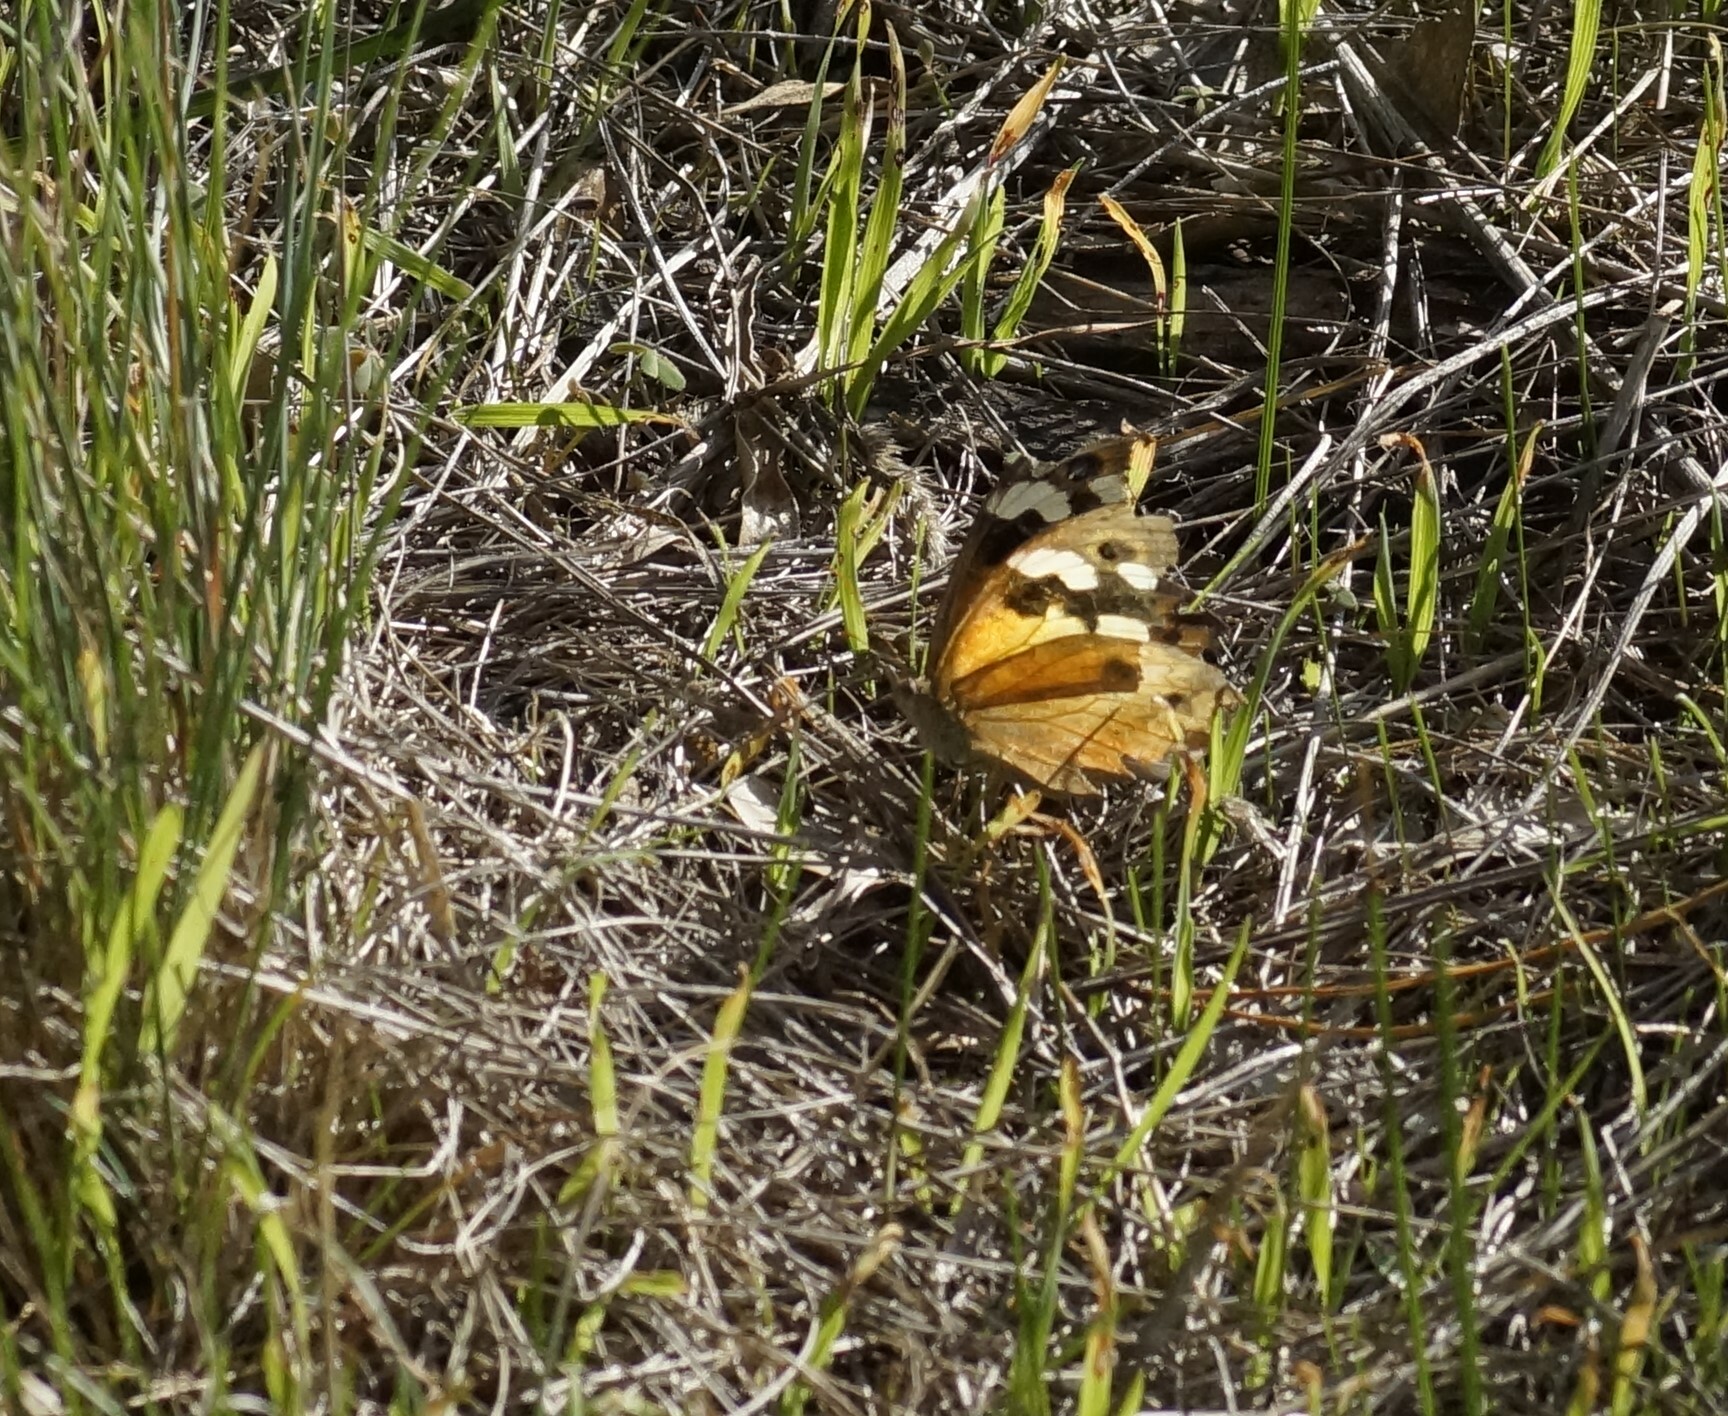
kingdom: Animalia
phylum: Arthropoda
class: Insecta
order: Lepidoptera
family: Nymphalidae
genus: Heteronympha
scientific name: Heteronympha merope
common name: Common brown
